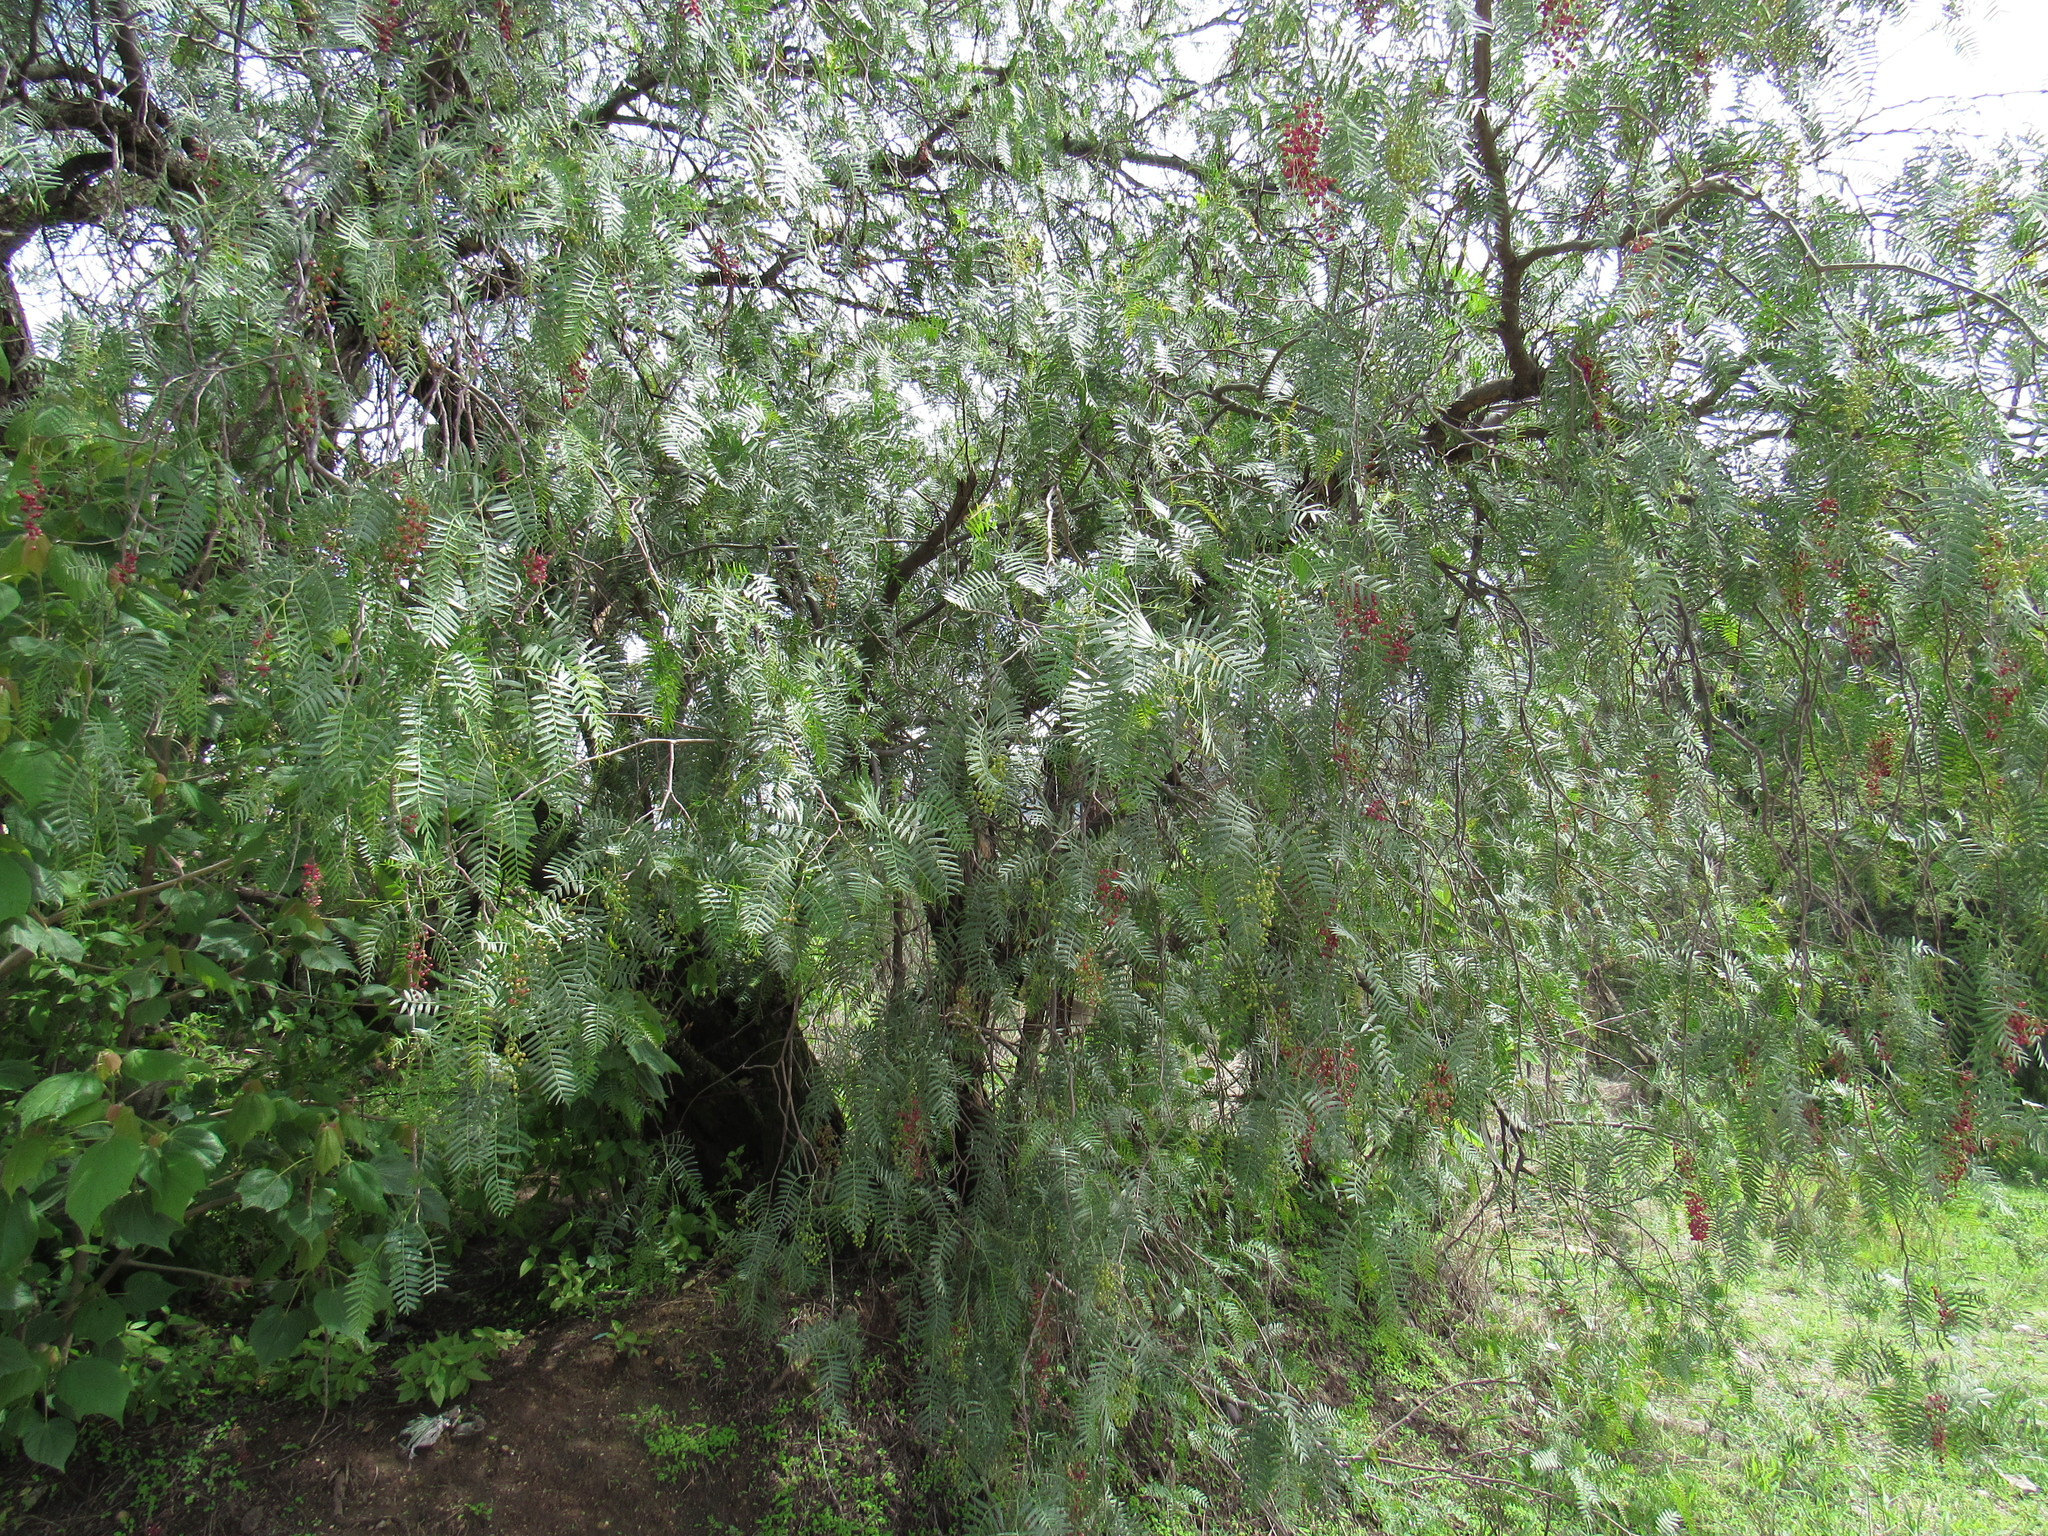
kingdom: Plantae
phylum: Tracheophyta
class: Magnoliopsida
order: Sapindales
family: Anacardiaceae
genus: Schinus
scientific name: Schinus molle
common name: Peruvian peppertree
